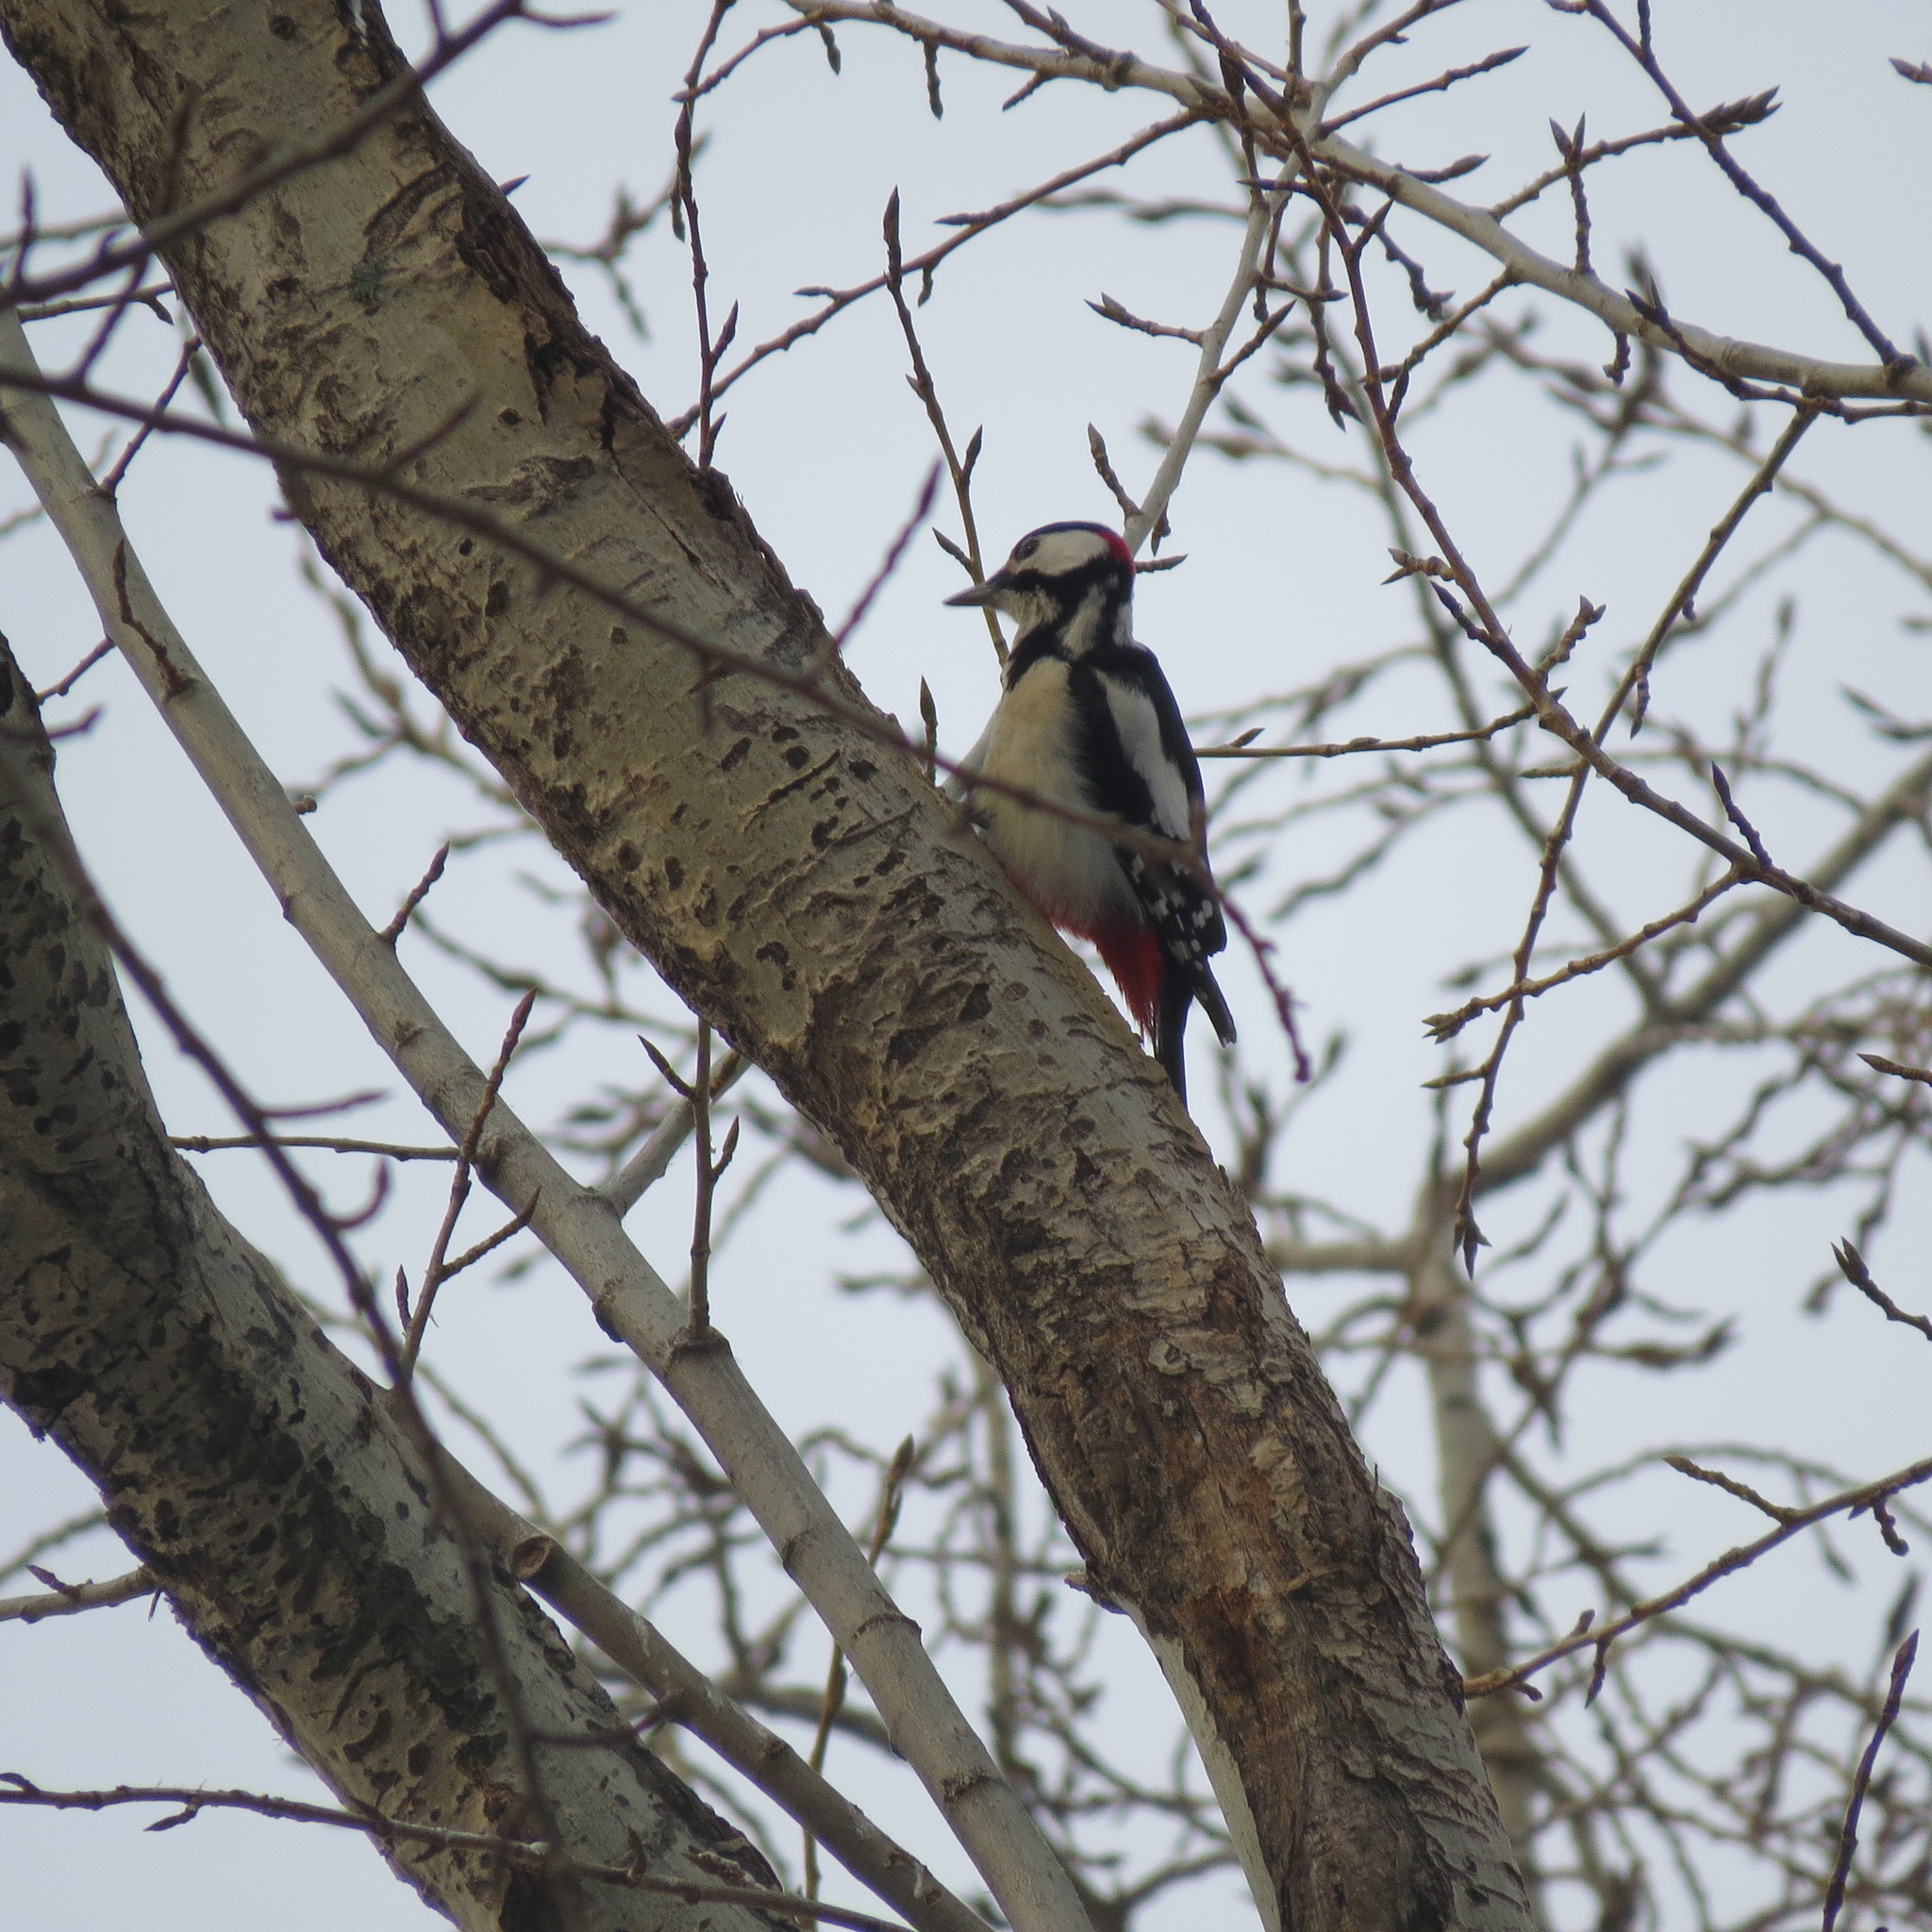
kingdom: Animalia
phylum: Chordata
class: Aves
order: Piciformes
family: Picidae
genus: Dendrocopos
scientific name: Dendrocopos major
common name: Great spotted woodpecker
